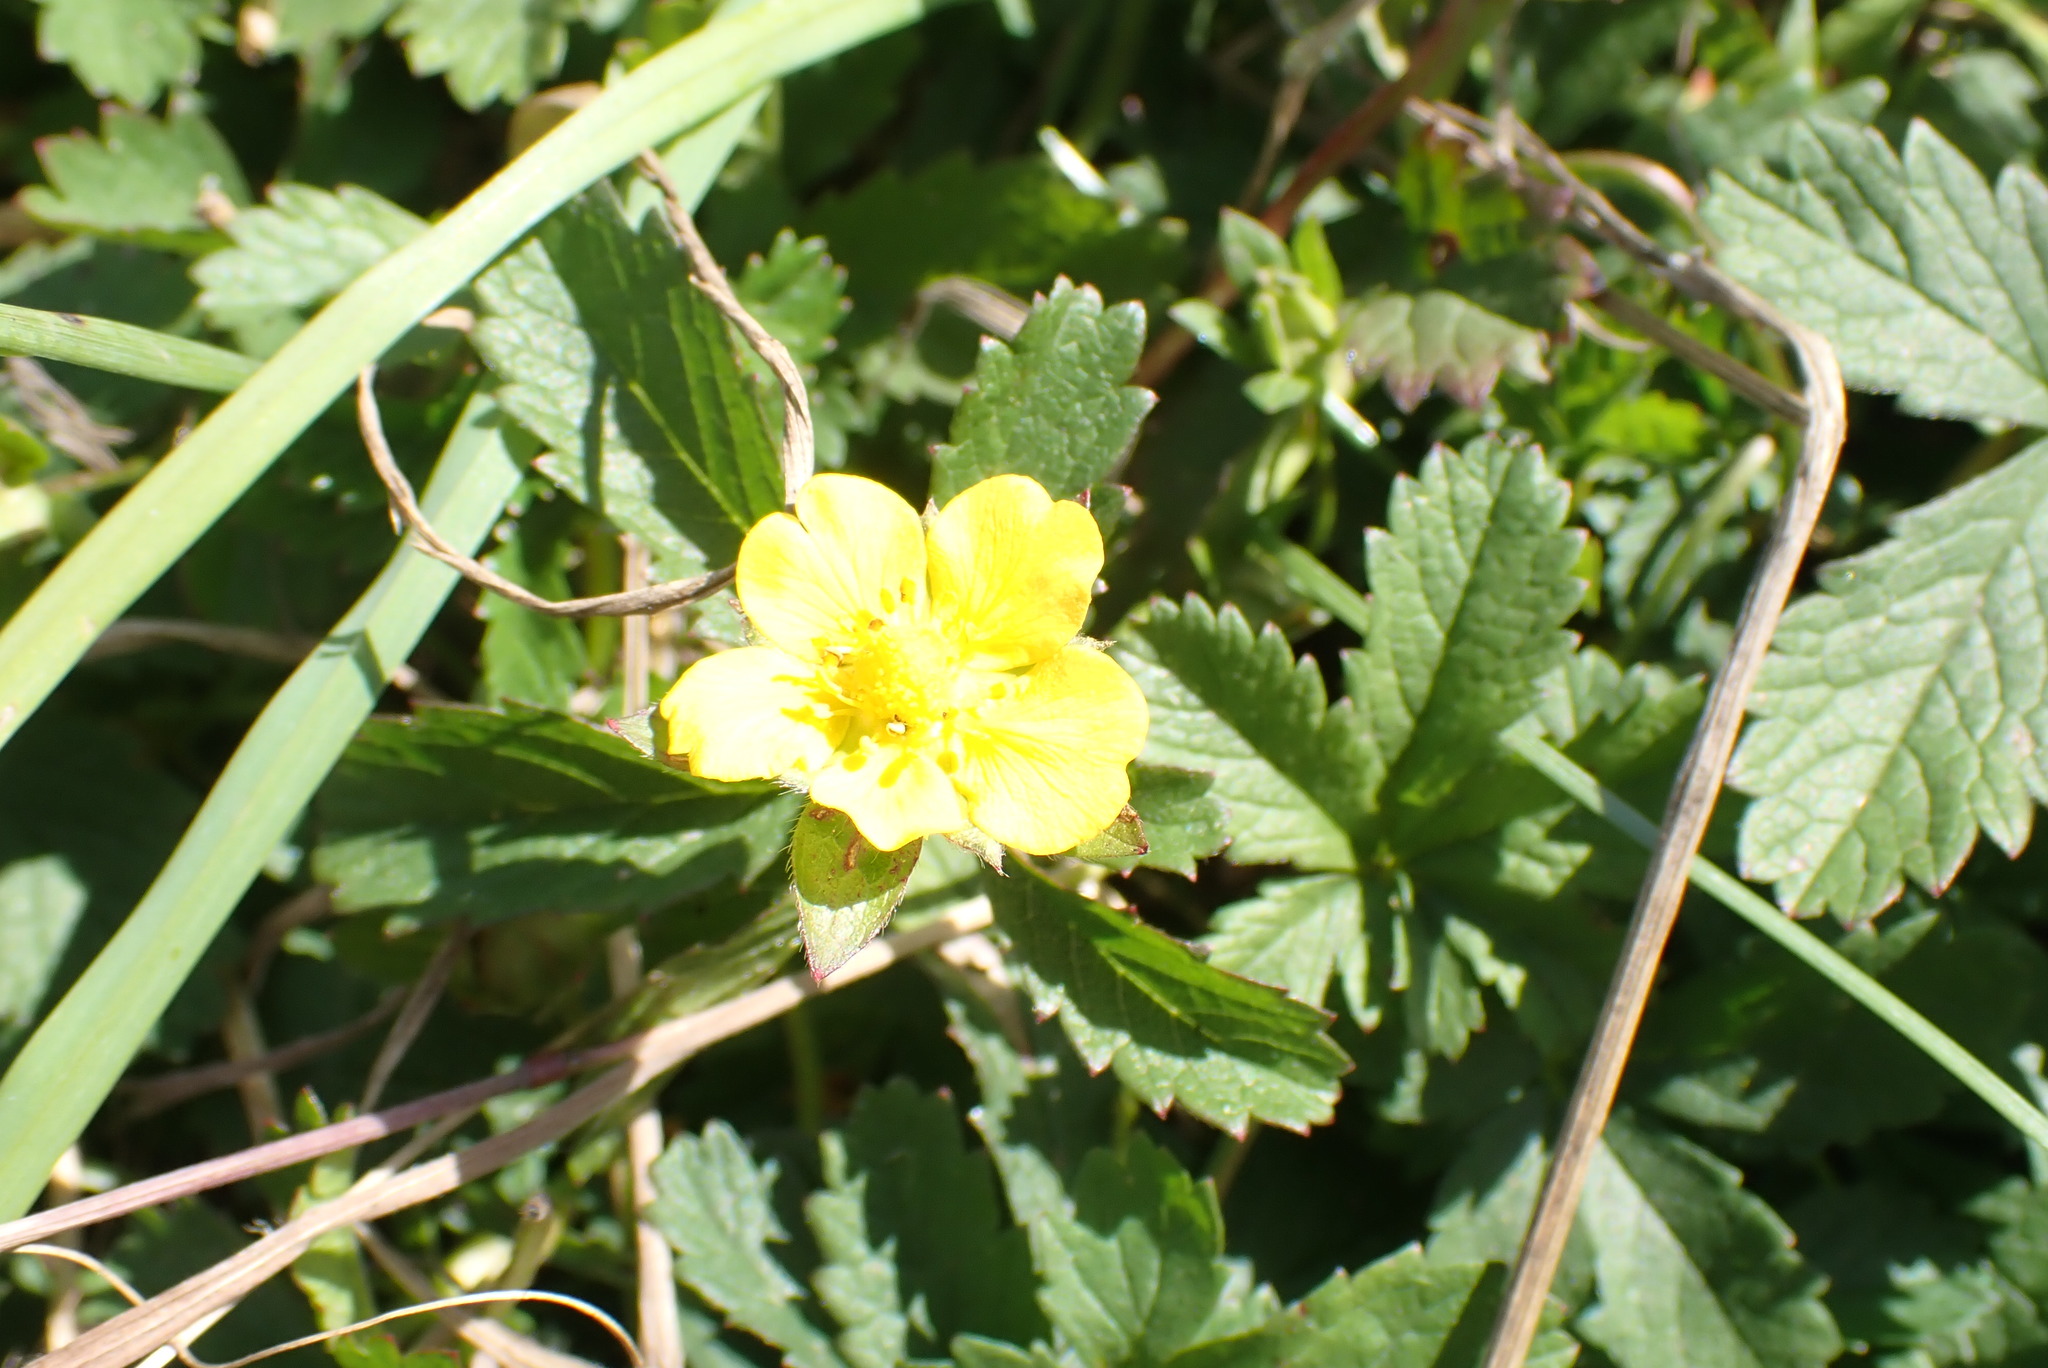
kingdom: Plantae
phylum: Tracheophyta
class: Magnoliopsida
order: Rosales
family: Rosaceae
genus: Potentilla
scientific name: Potentilla reptans
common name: Creeping cinquefoil
